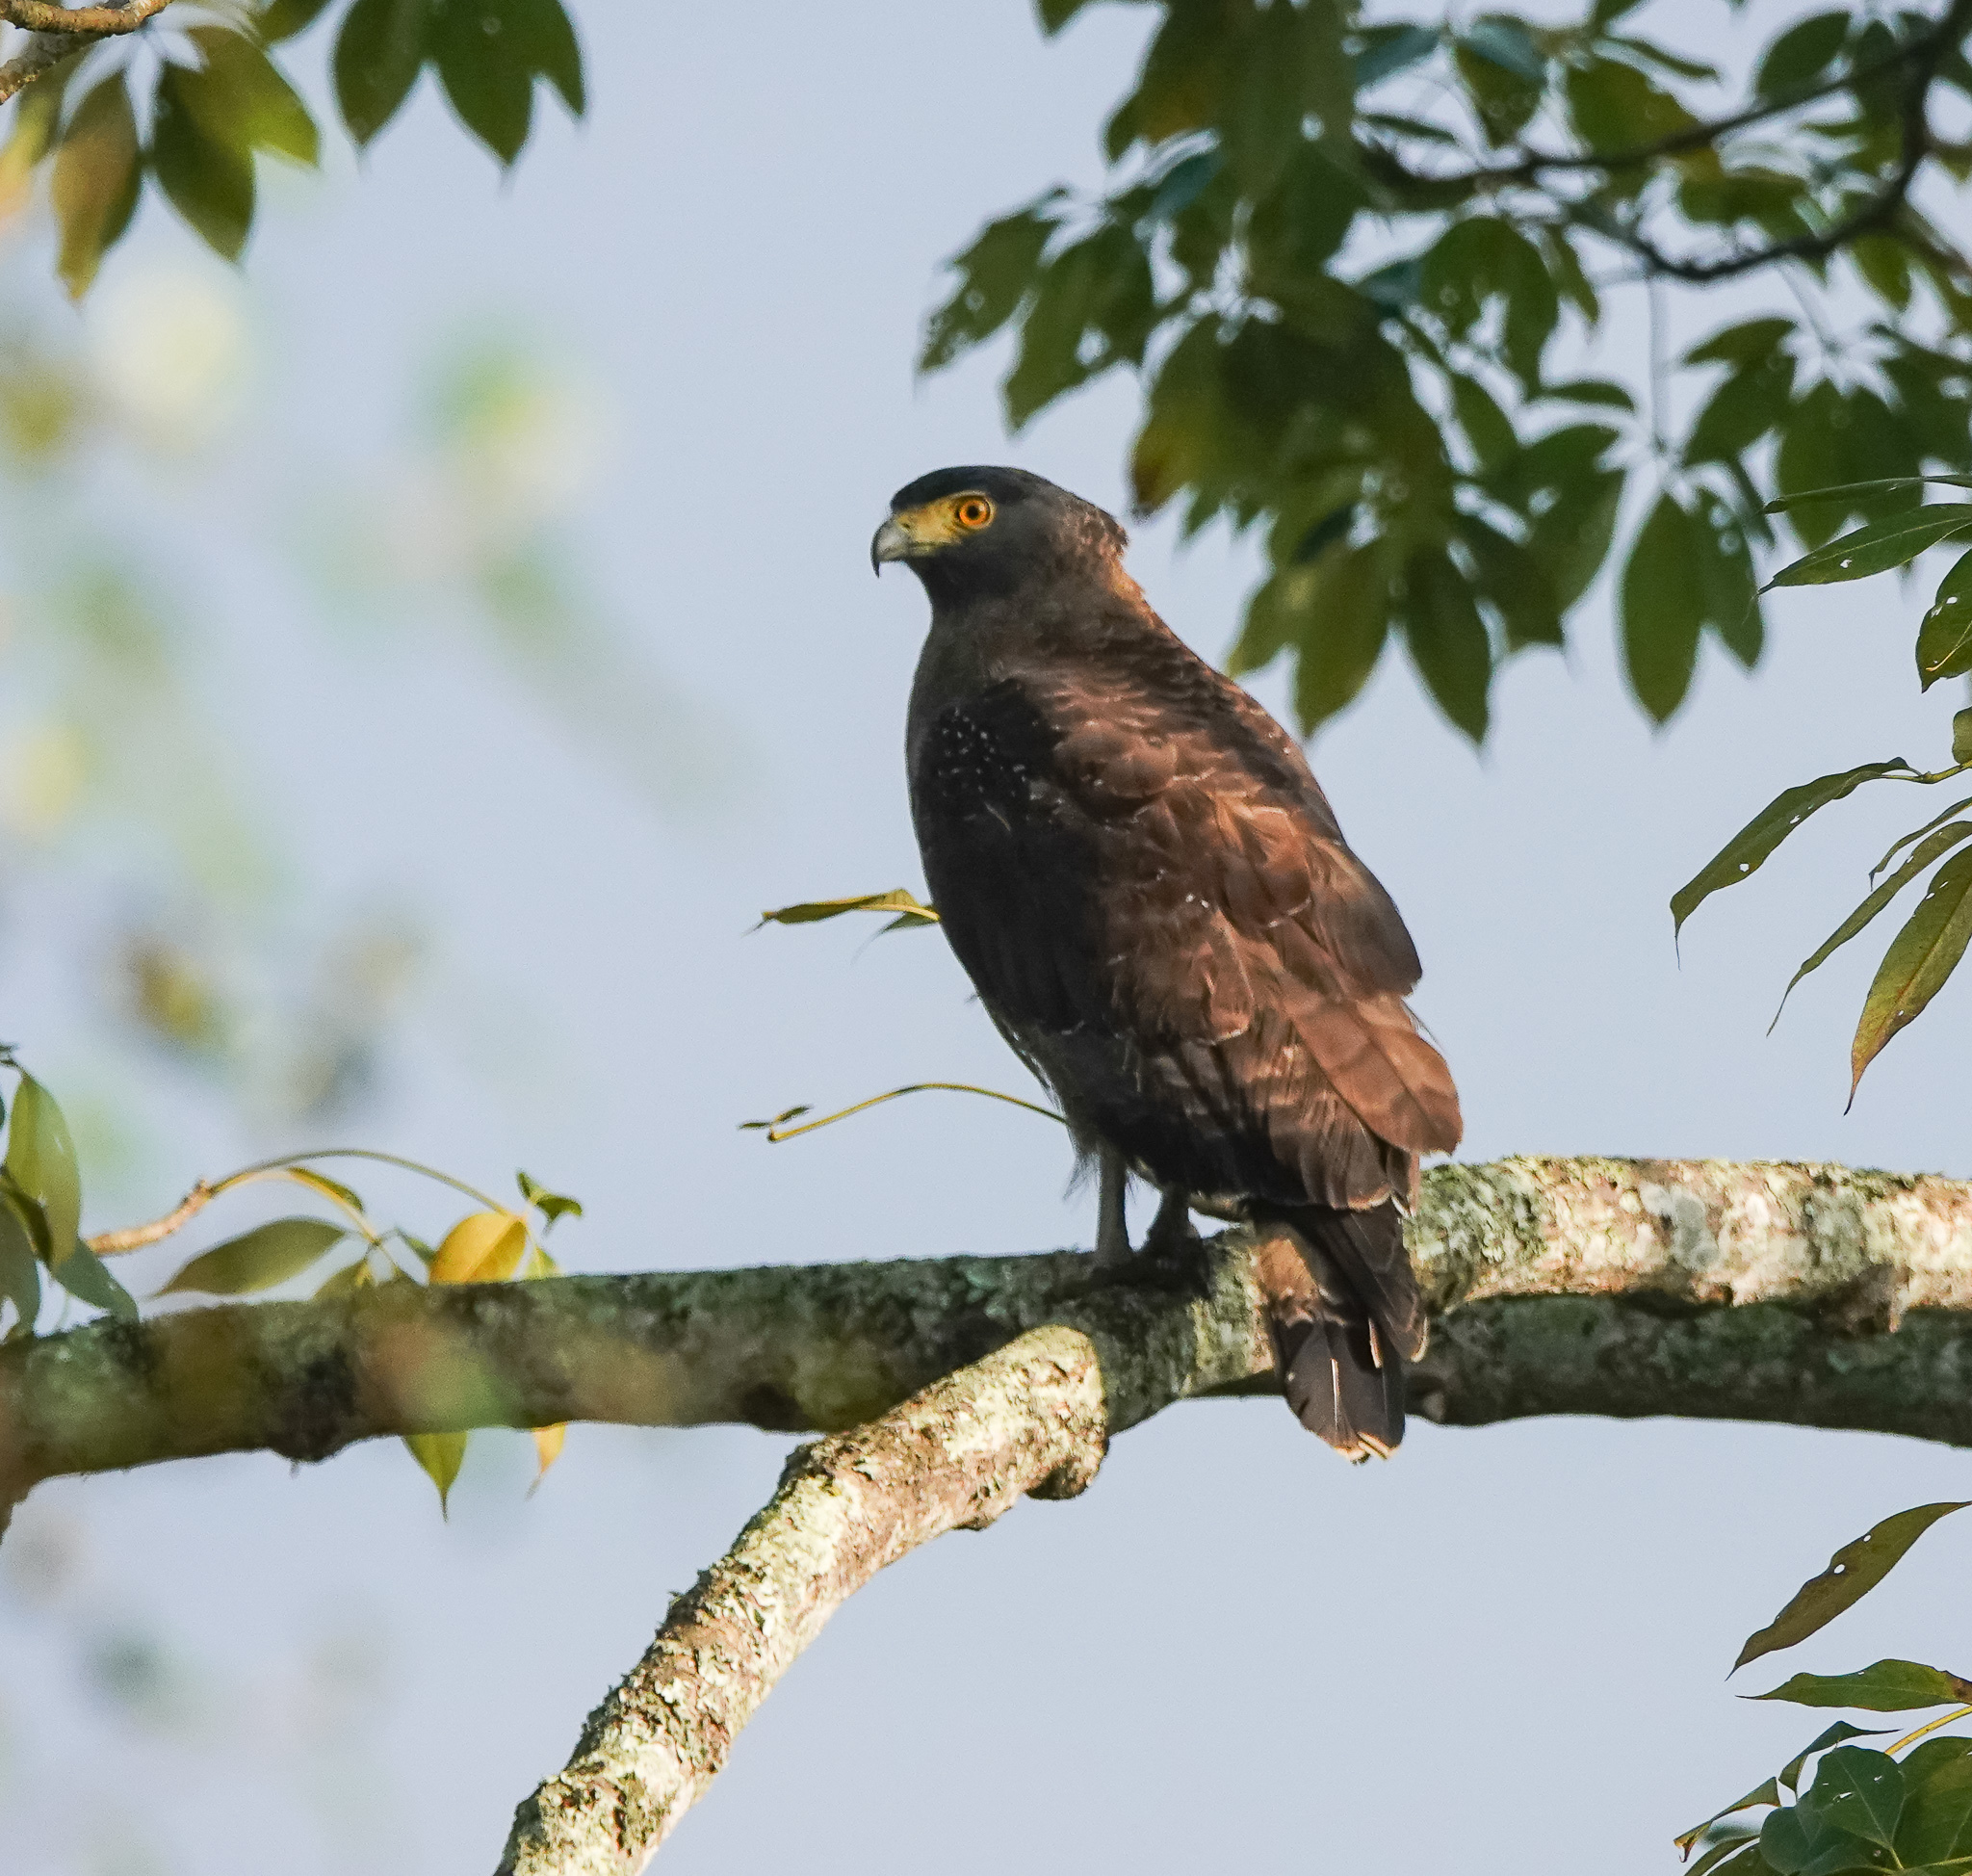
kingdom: Animalia
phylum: Chordata
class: Aves
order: Accipitriformes
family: Accipitridae
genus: Spilornis
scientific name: Spilornis cheela
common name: Crested serpent eagle
